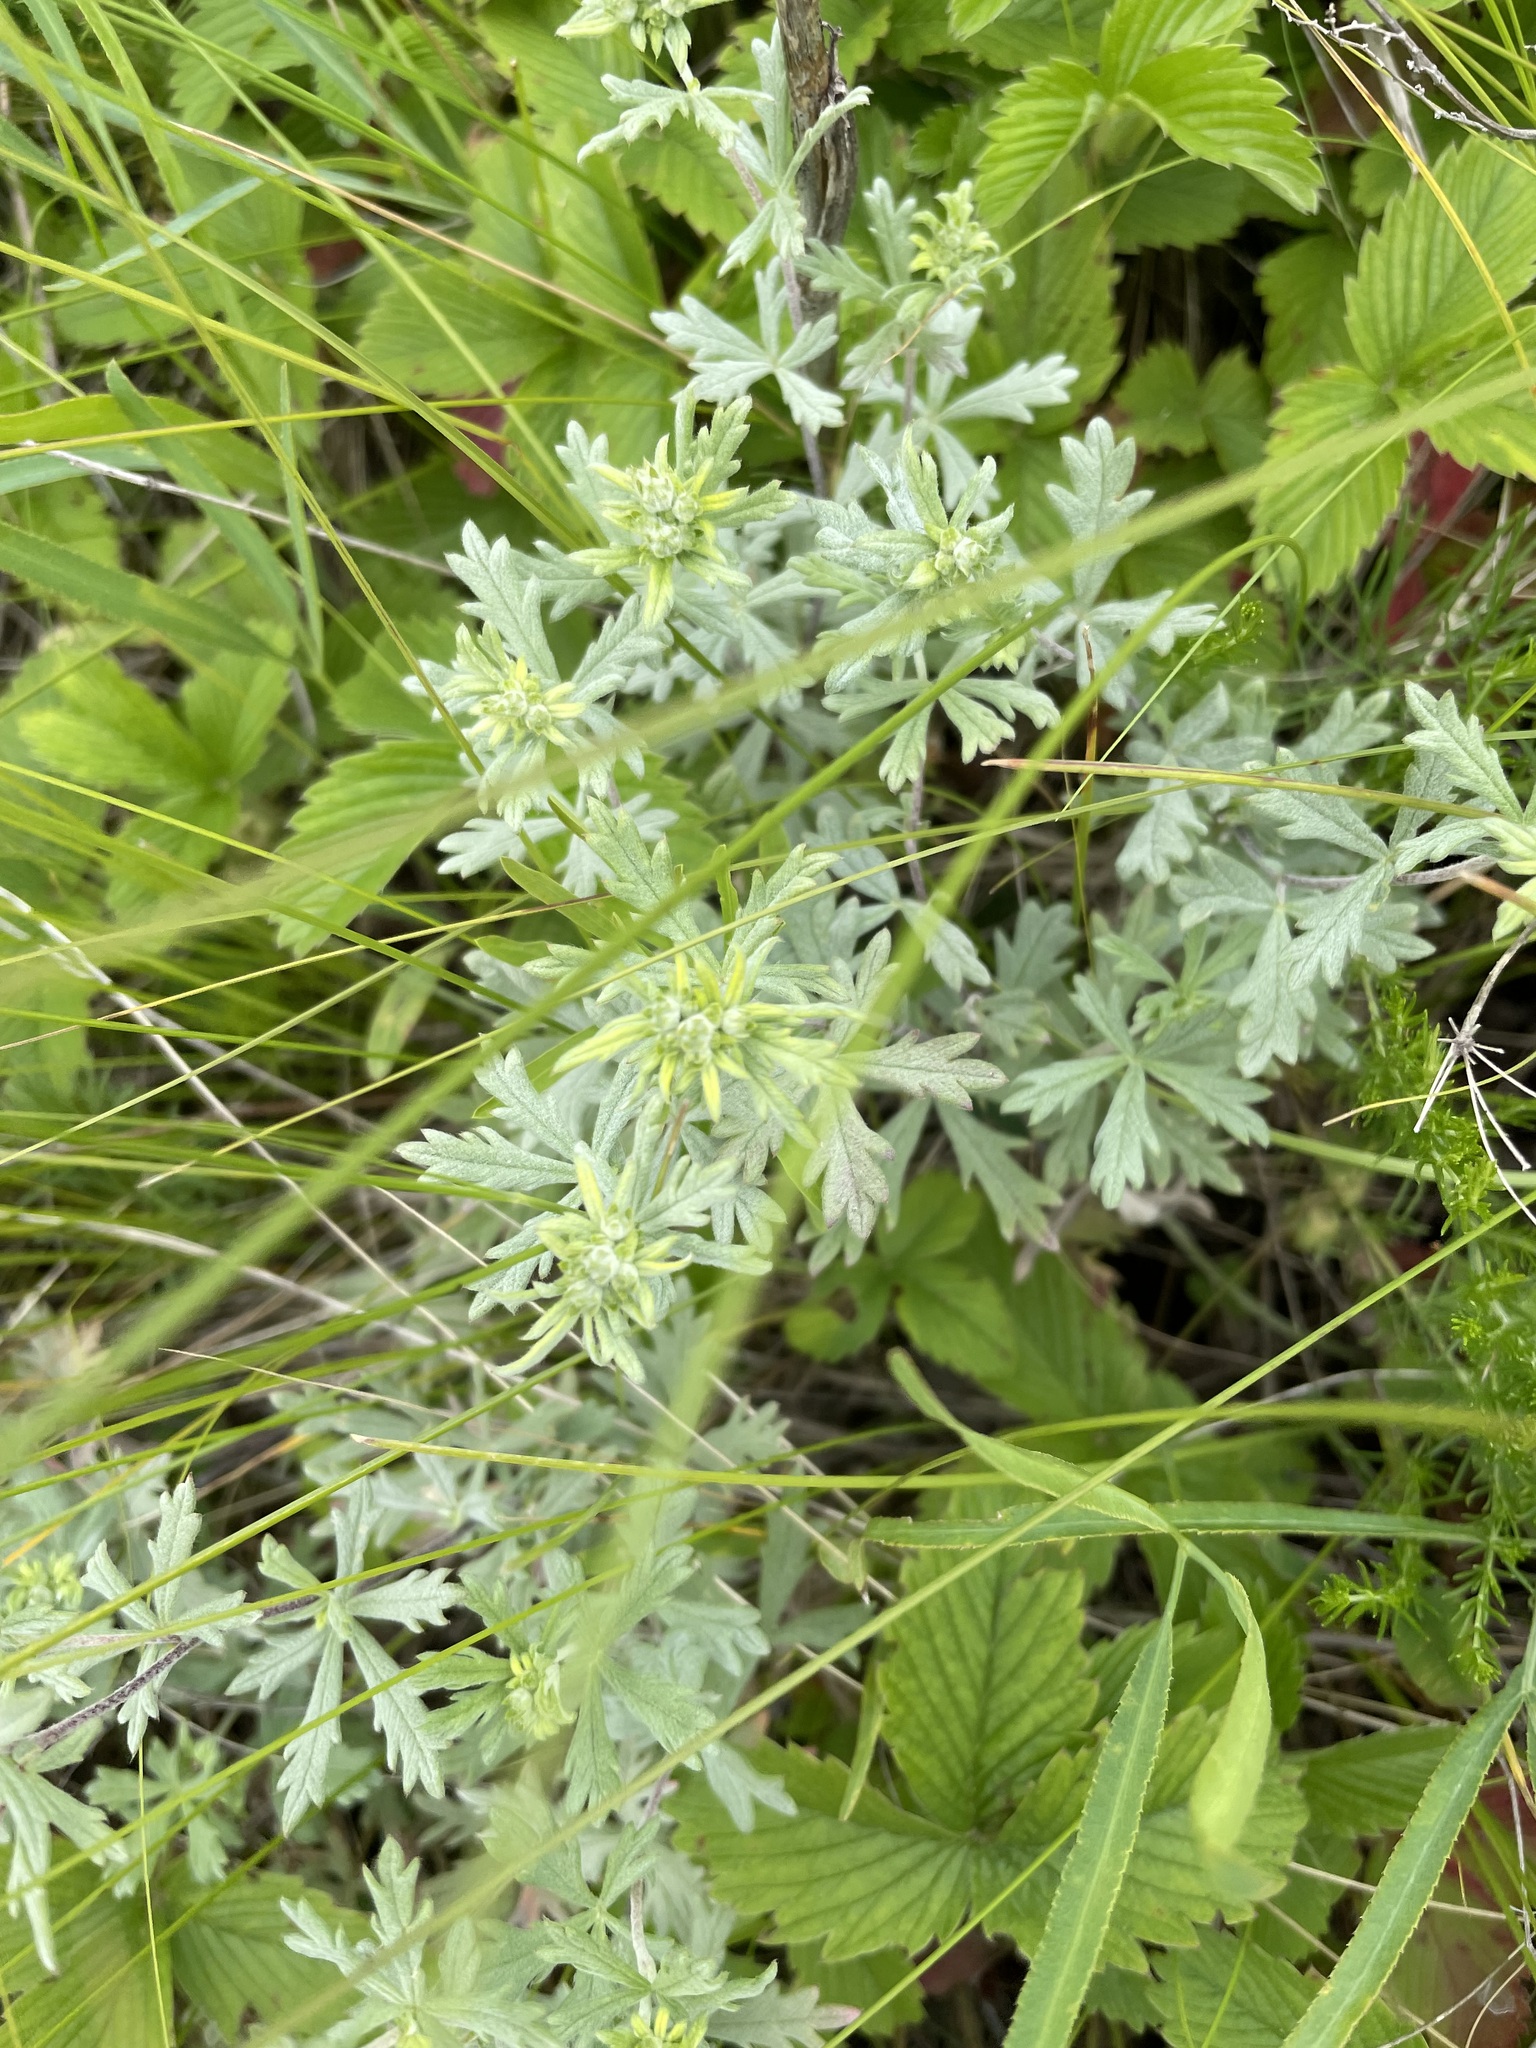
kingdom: Plantae
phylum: Tracheophyta
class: Magnoliopsida
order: Rosales
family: Rosaceae
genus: Potentilla
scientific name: Potentilla argentea
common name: Hoary cinquefoil
